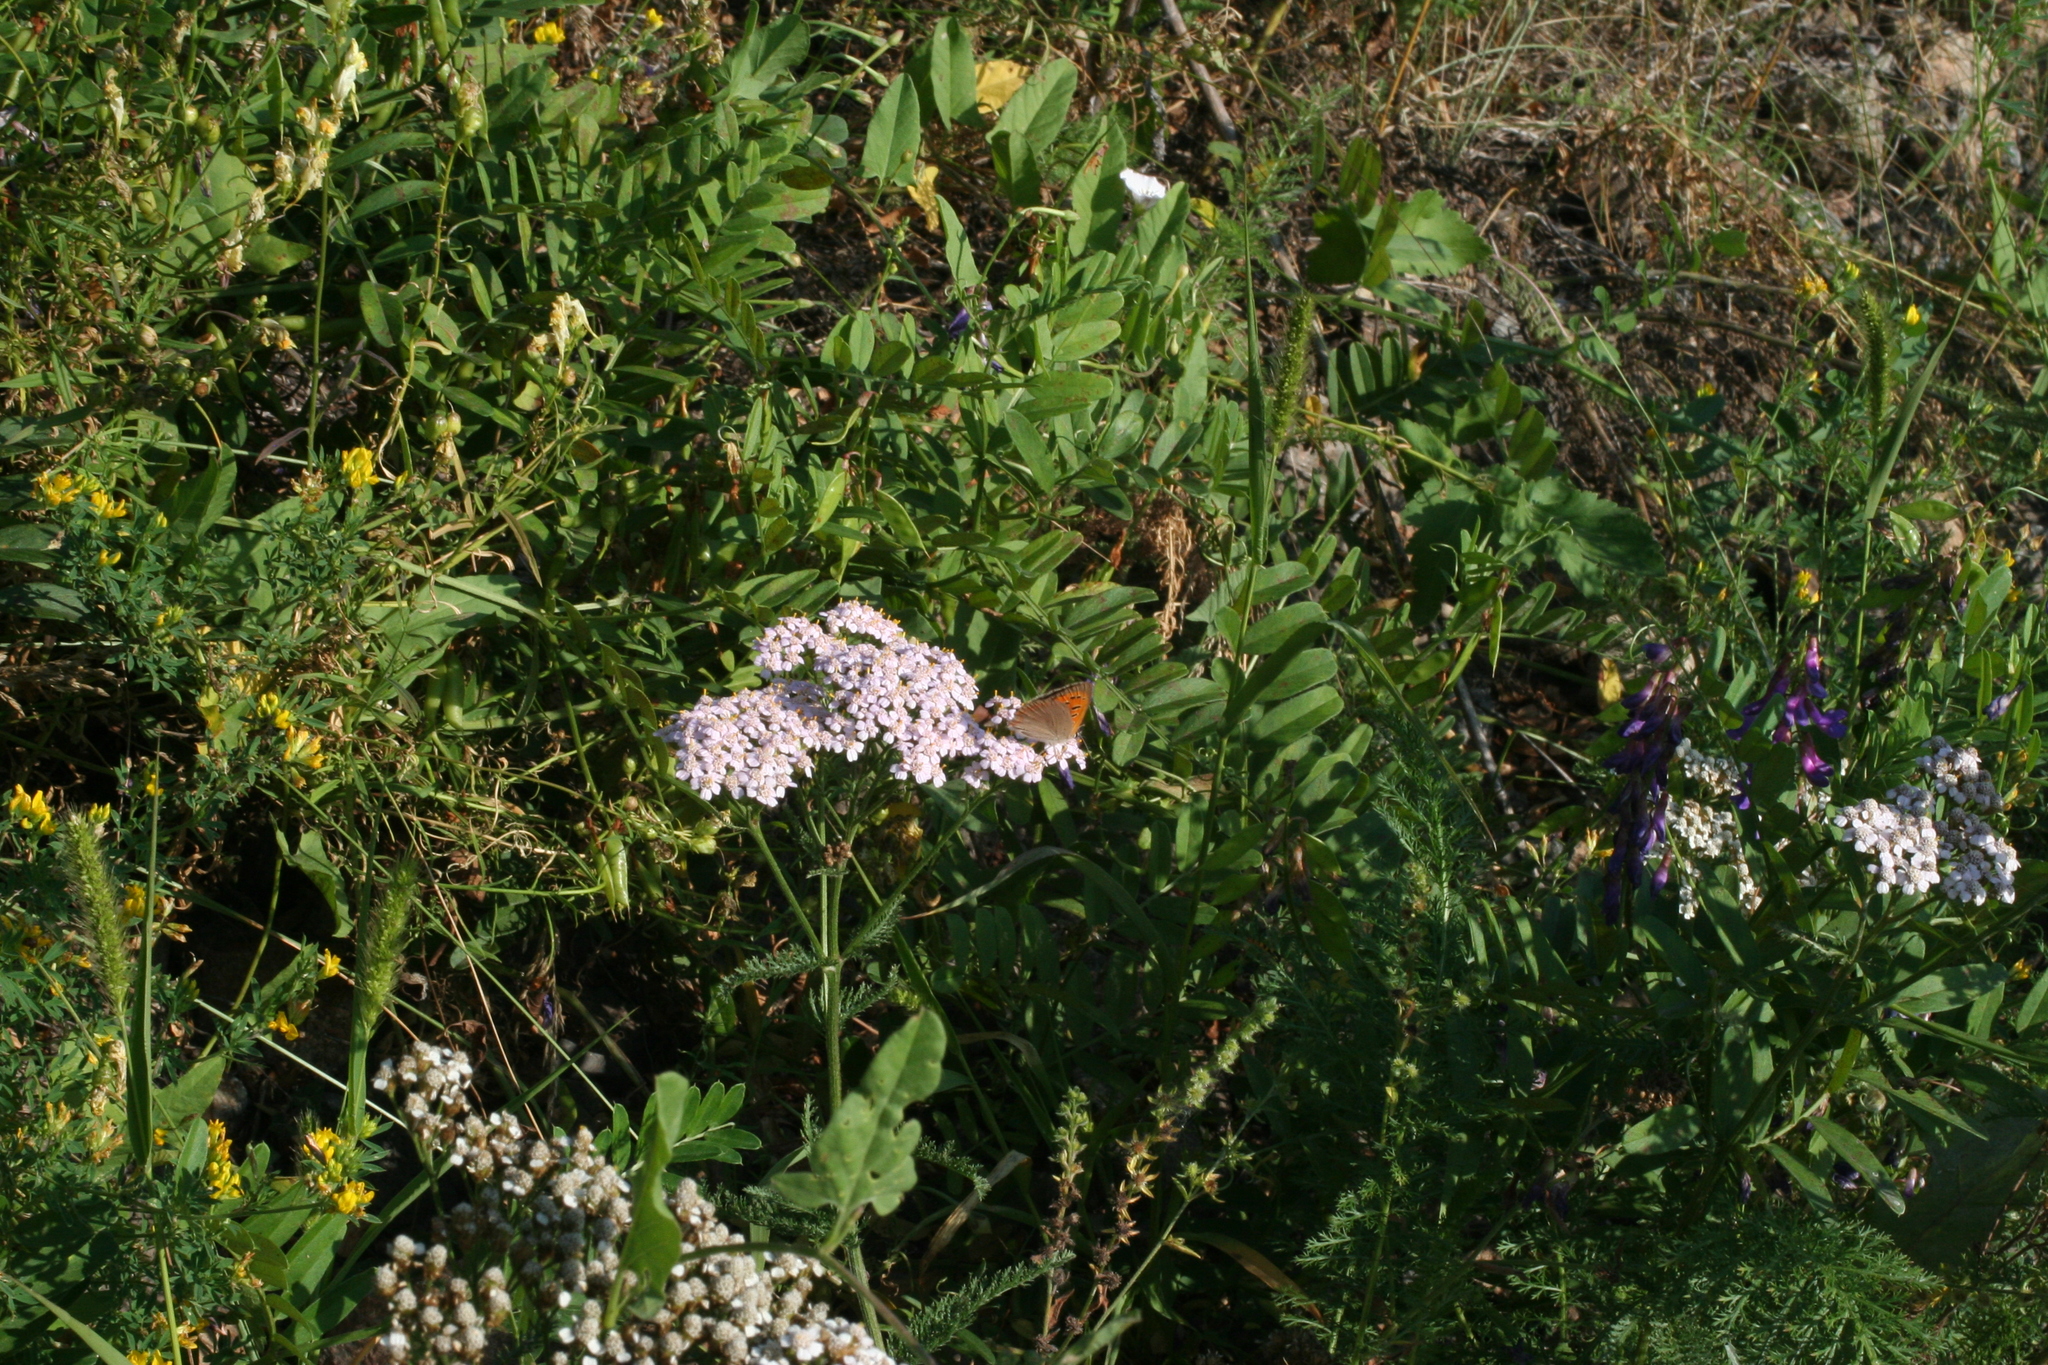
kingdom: Animalia
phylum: Arthropoda
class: Insecta
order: Lepidoptera
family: Lycaenidae
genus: Lycaena
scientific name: Lycaena phlaeas
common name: Small copper
